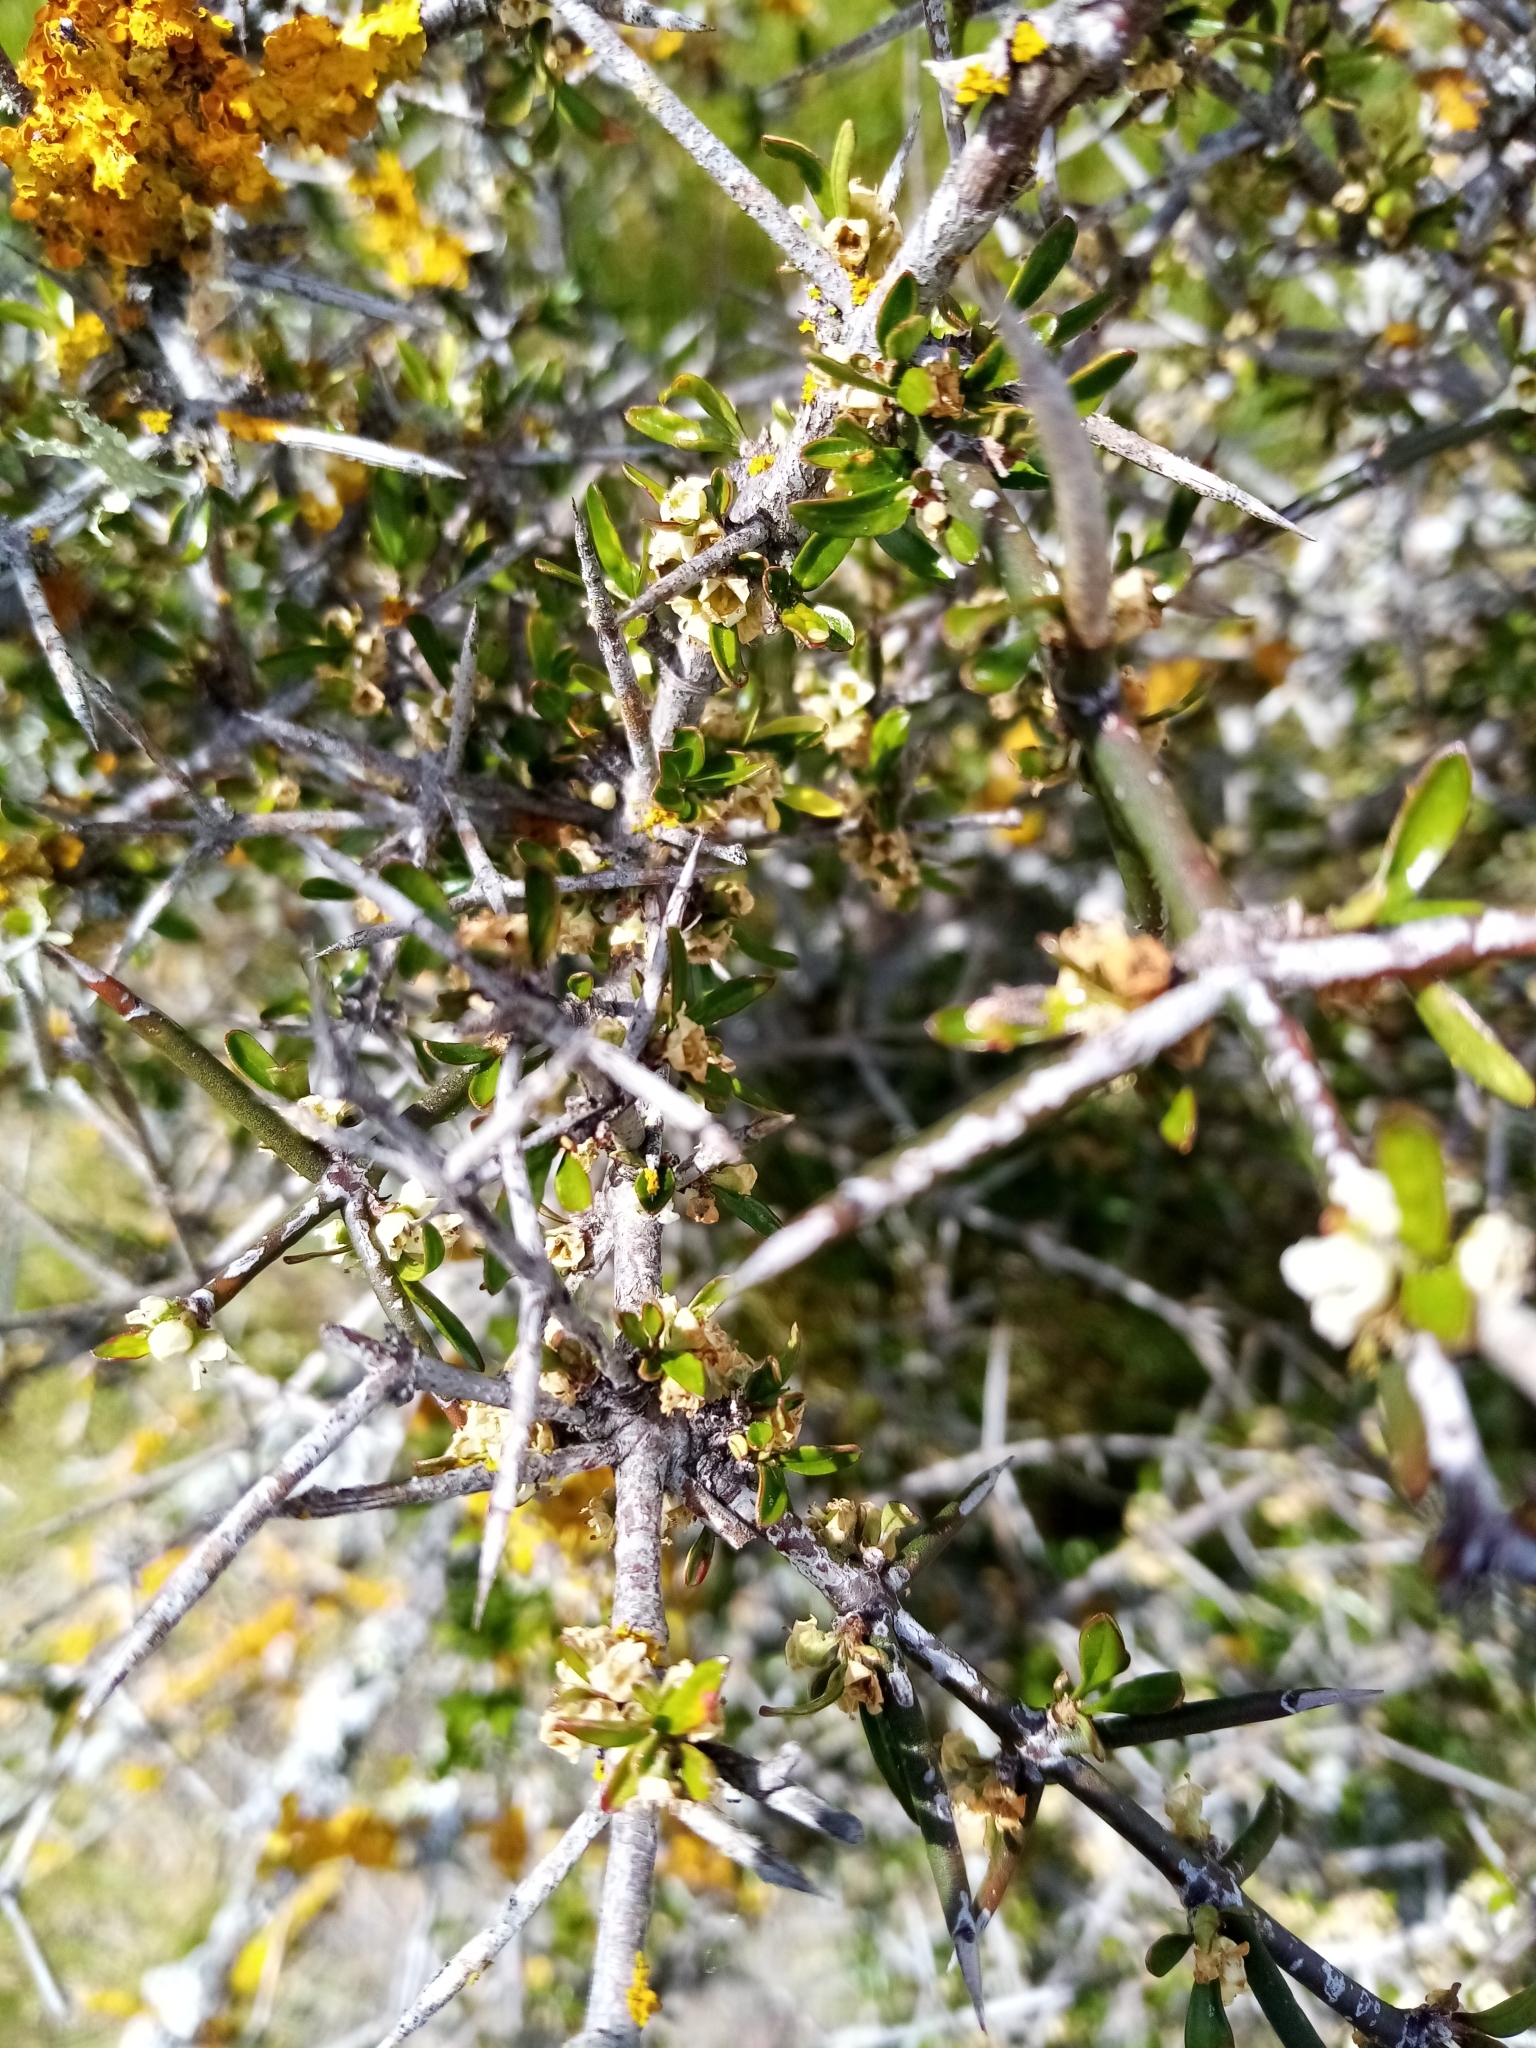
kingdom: Plantae
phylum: Tracheophyta
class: Magnoliopsida
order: Rosales
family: Rhamnaceae
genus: Discaria
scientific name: Discaria toumatou
